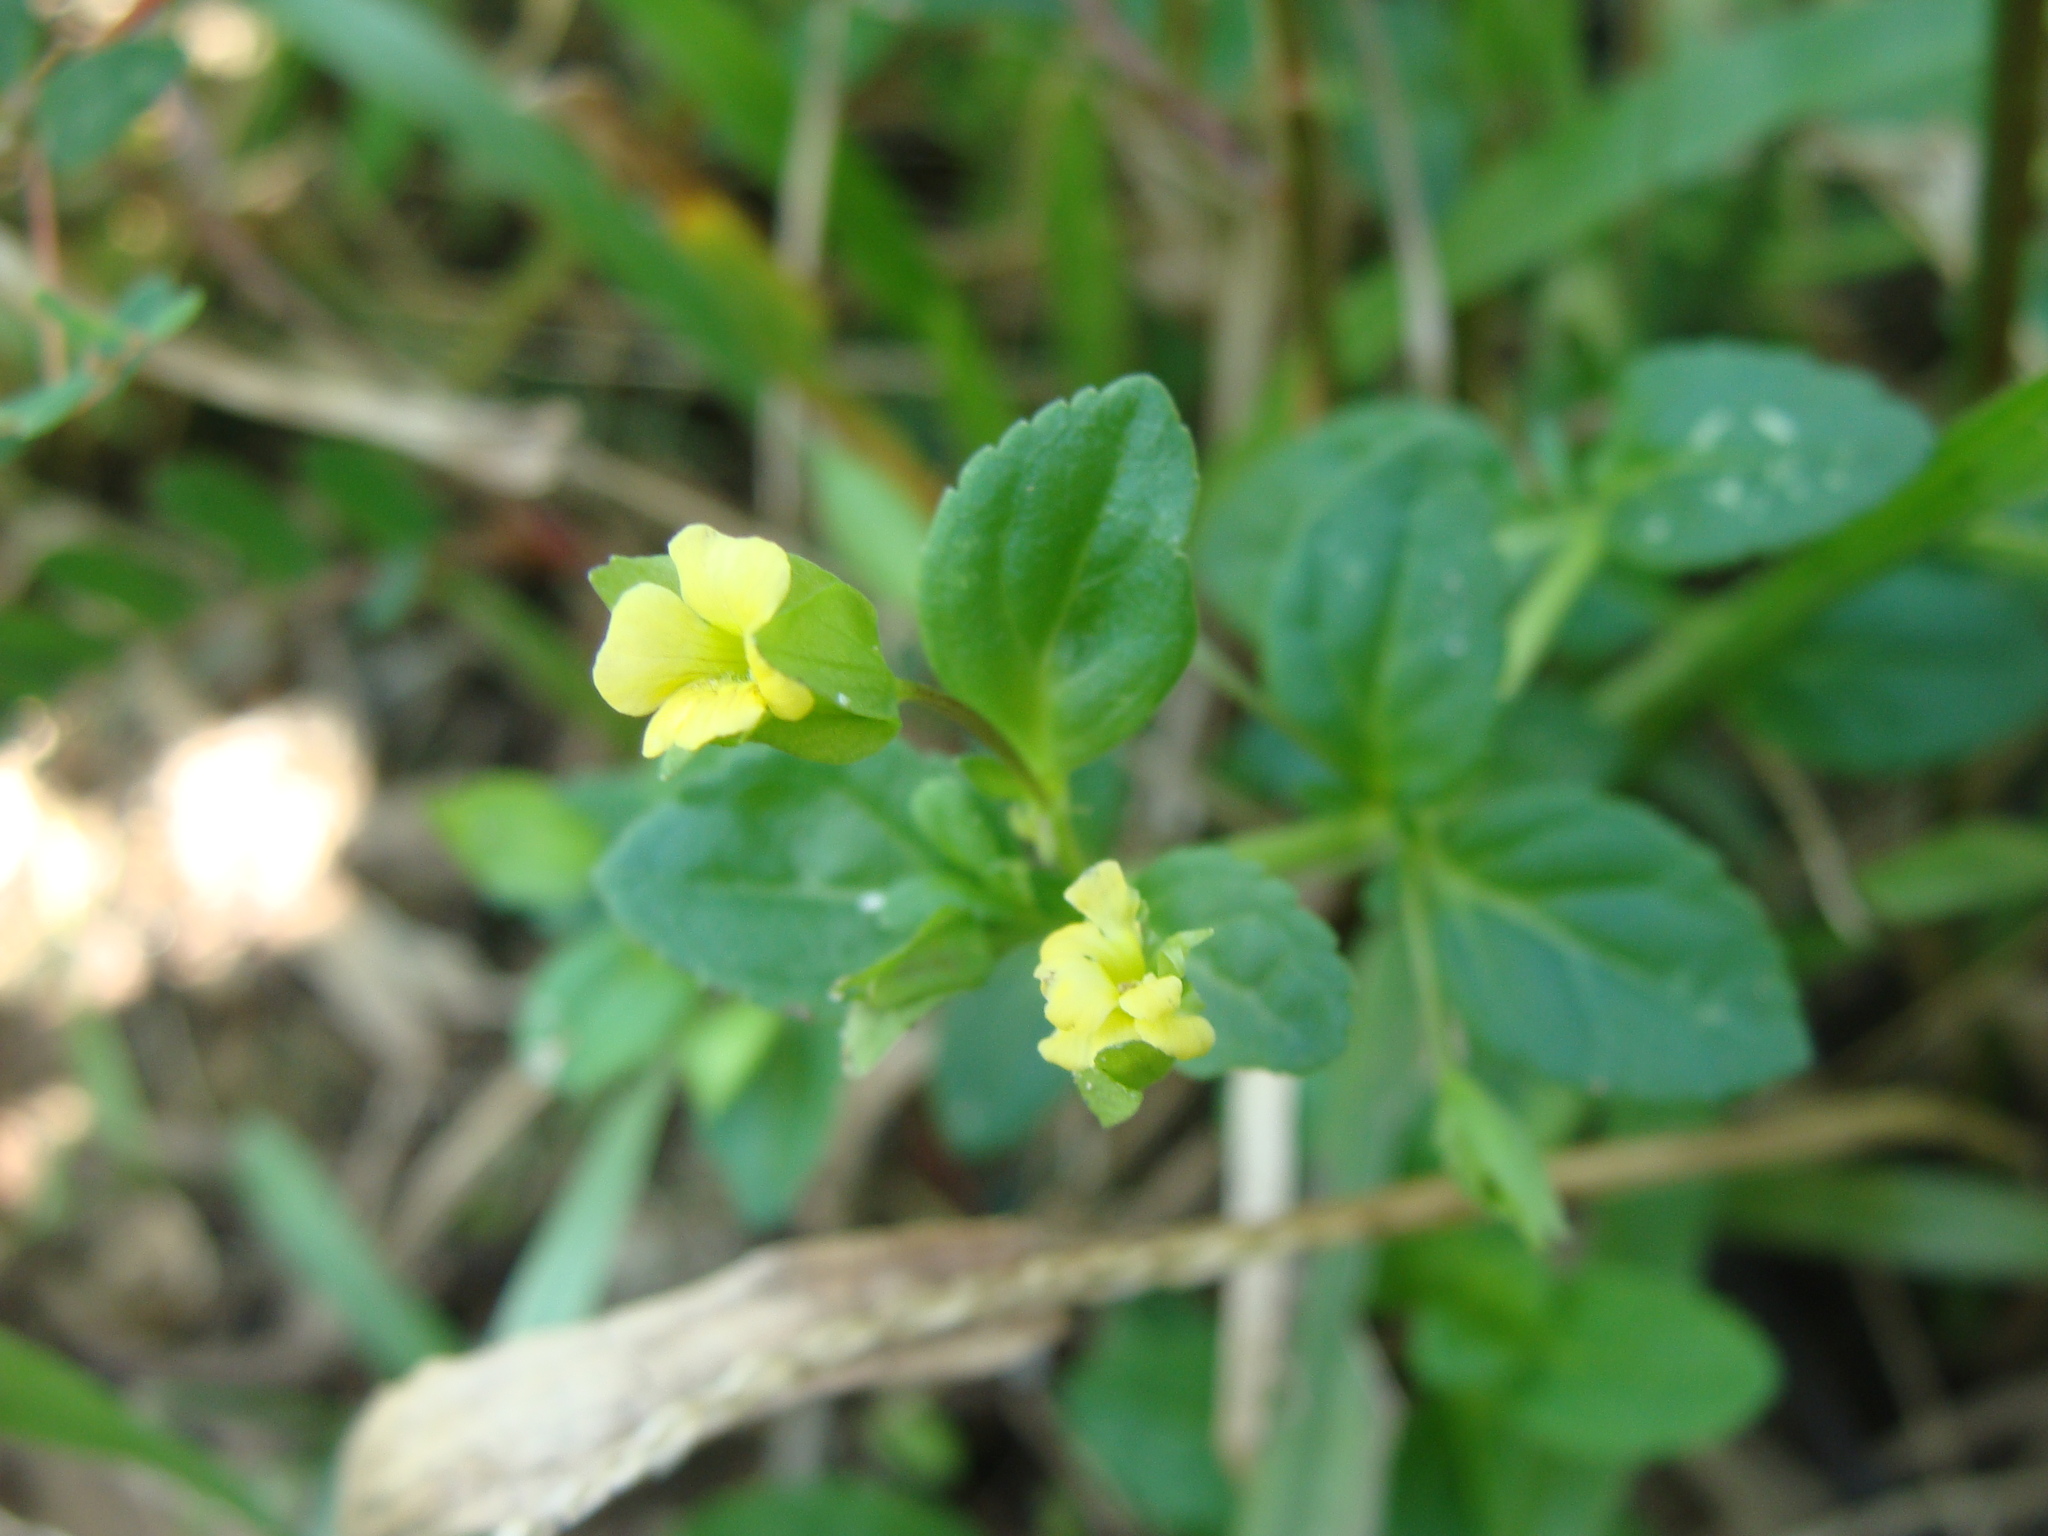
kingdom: Plantae
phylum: Tracheophyta
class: Magnoliopsida
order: Lamiales
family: Plantaginaceae
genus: Mecardonia
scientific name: Mecardonia procumbens
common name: Baby jump-up
